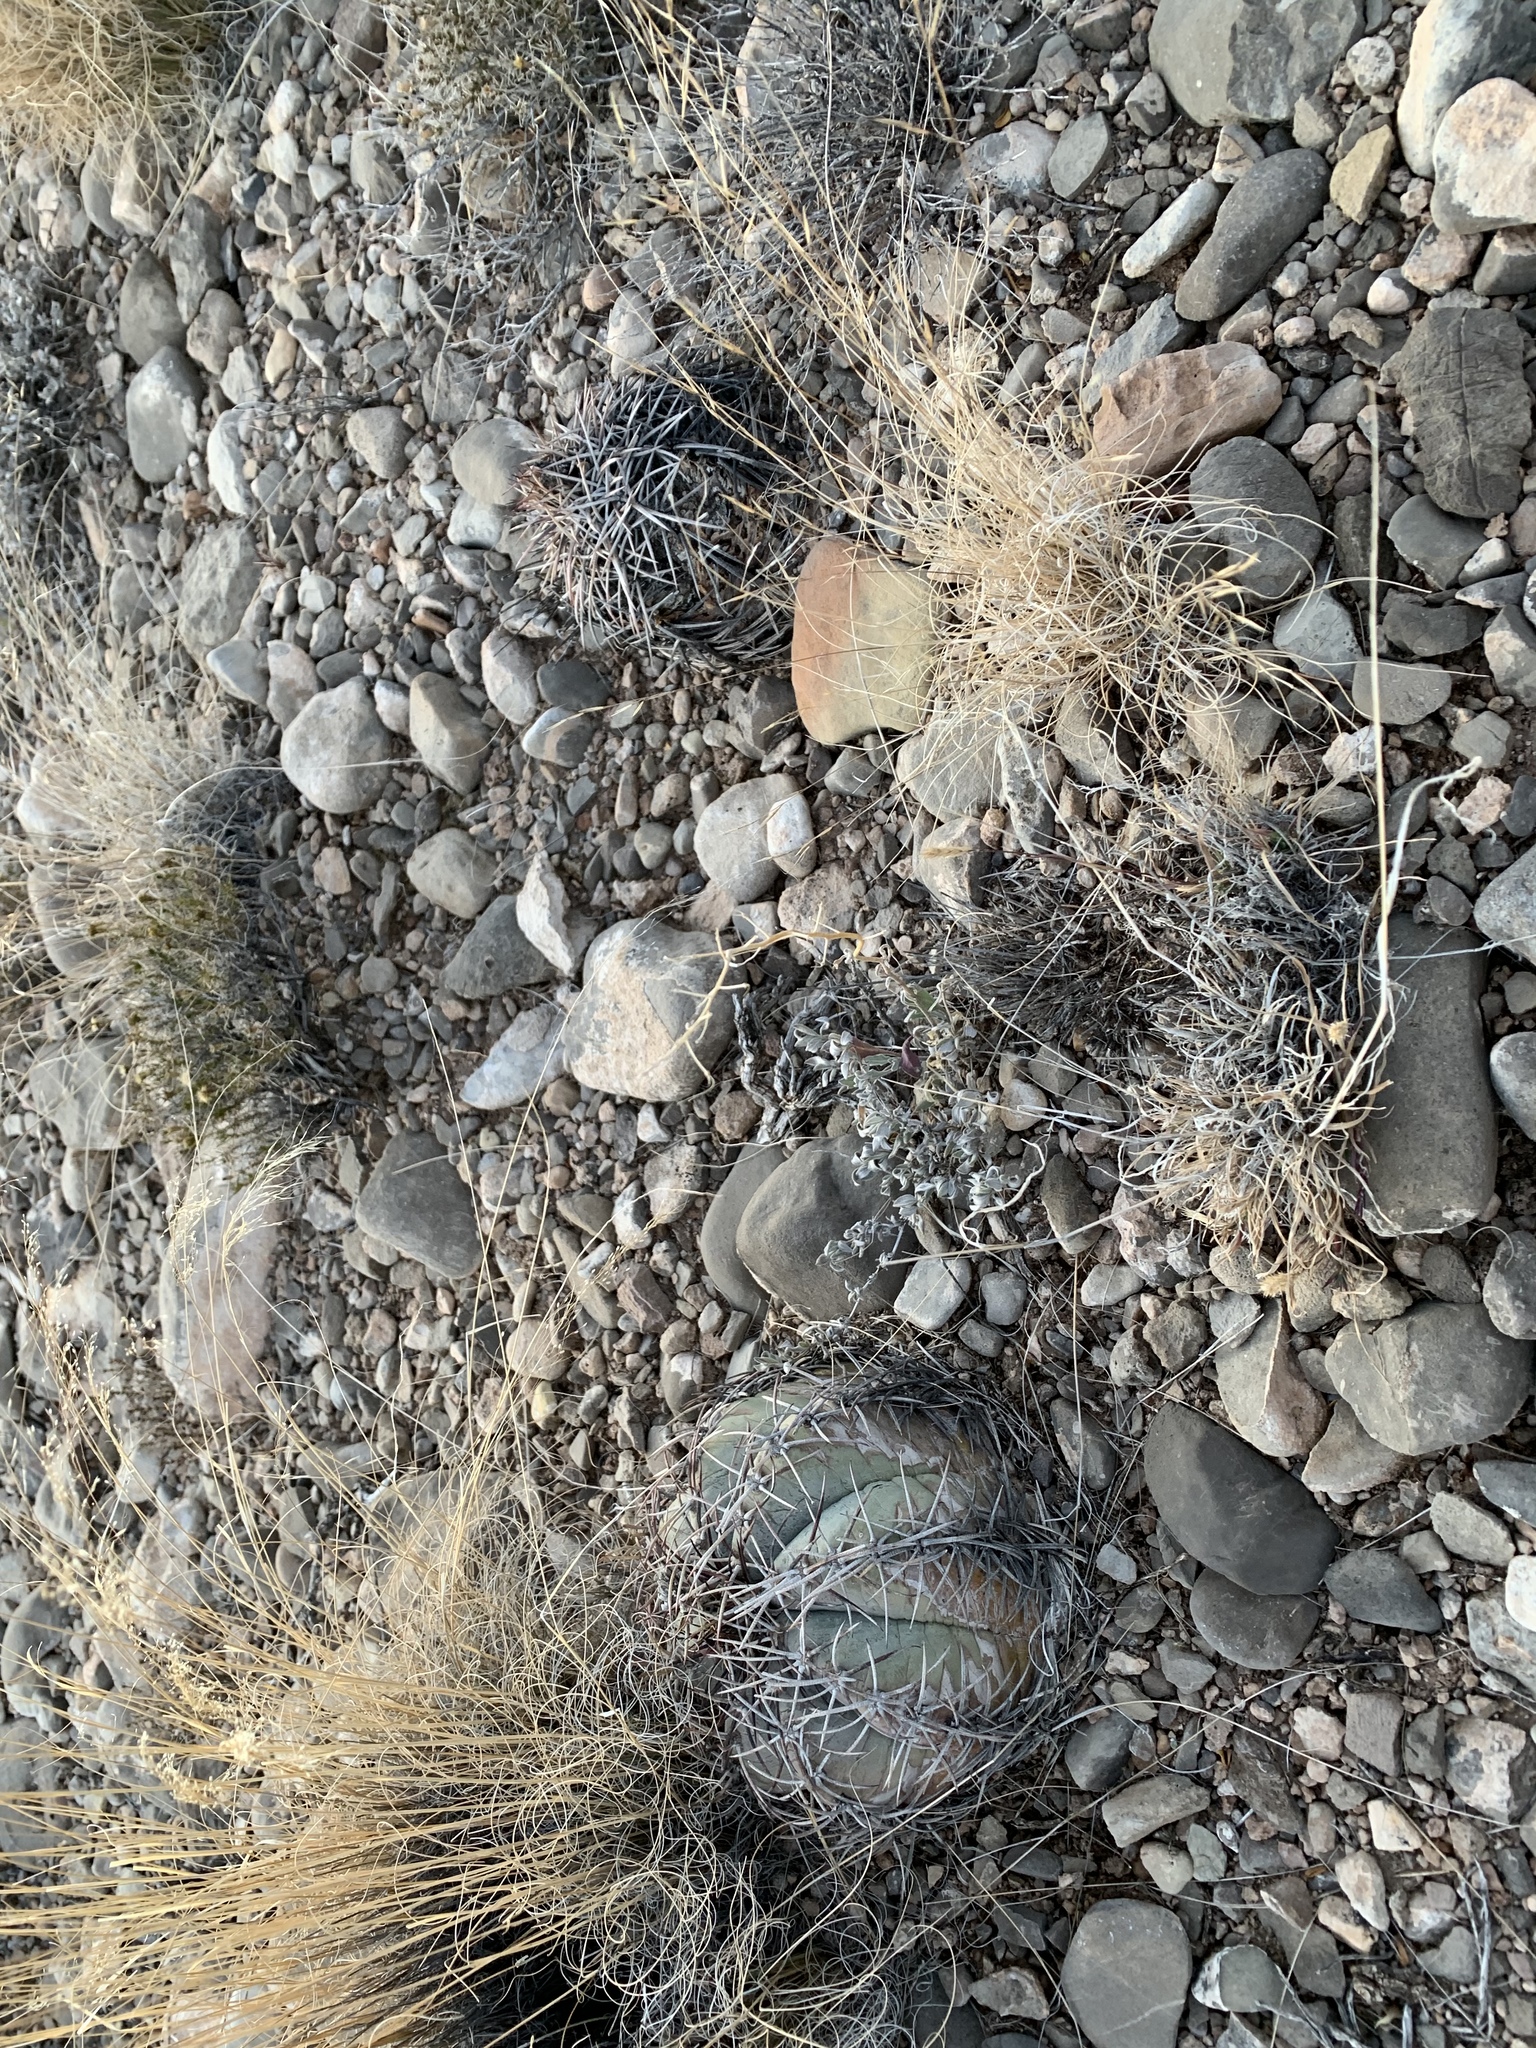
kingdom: Plantae
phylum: Tracheophyta
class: Magnoliopsida
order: Caryophyllales
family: Cactaceae
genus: Echinocactus
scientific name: Echinocactus horizonthalonius
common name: Devilshead
